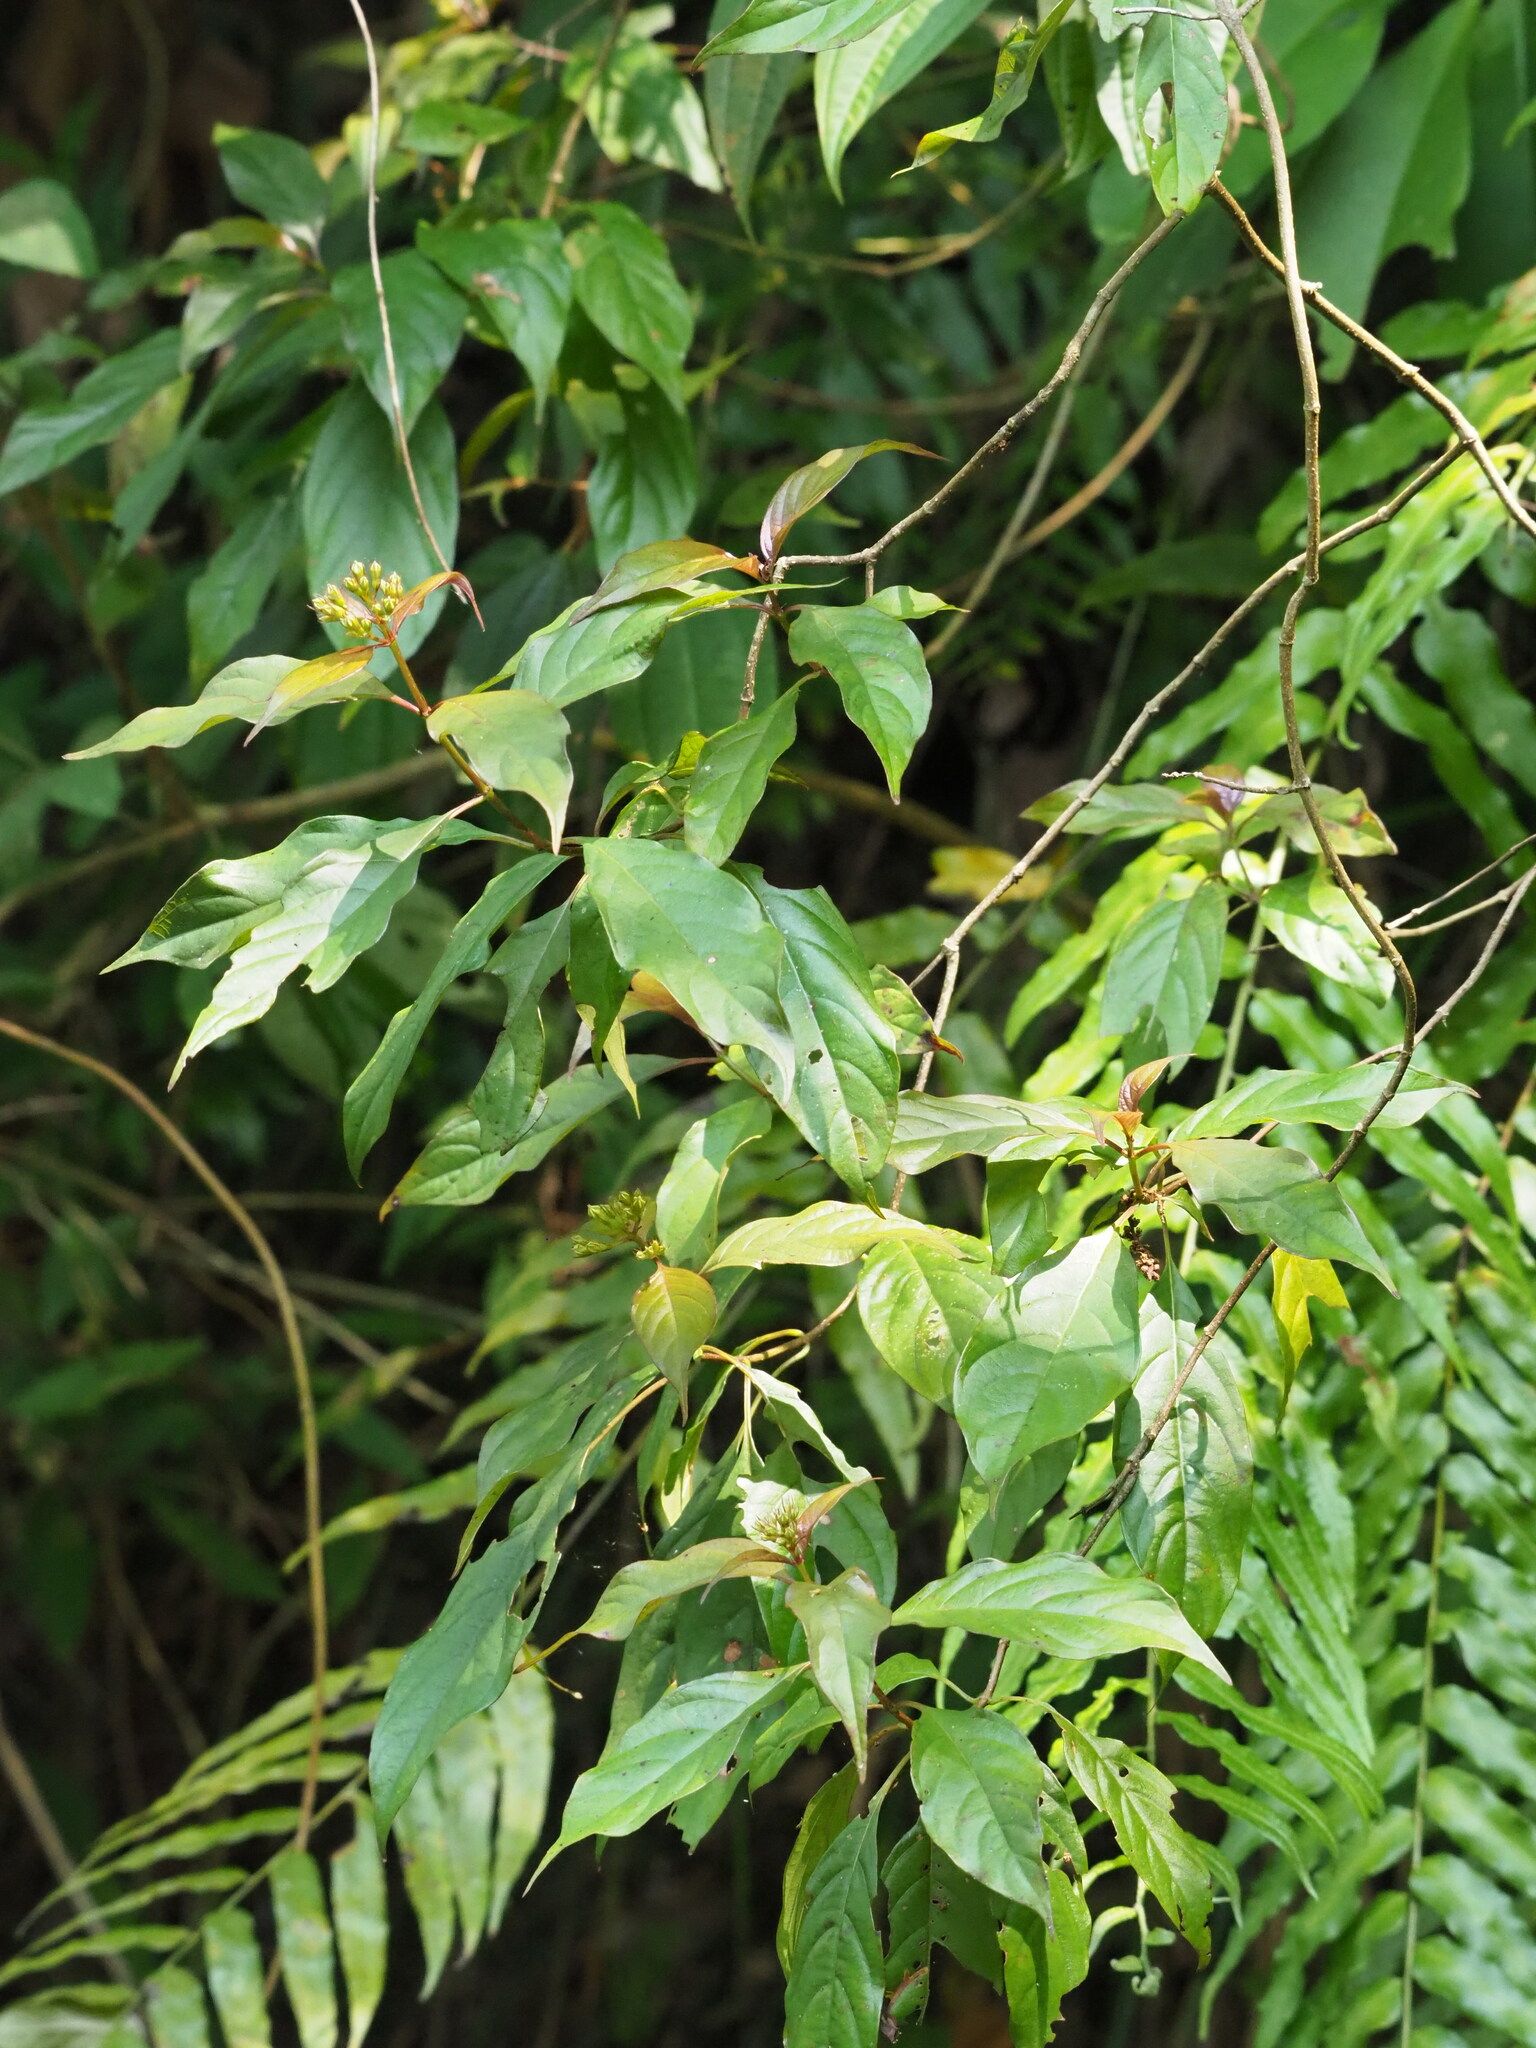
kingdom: Plantae
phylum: Tracheophyta
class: Magnoliopsida
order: Gentianales
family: Rubiaceae
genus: Mussaenda
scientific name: Mussaenda parviflora
